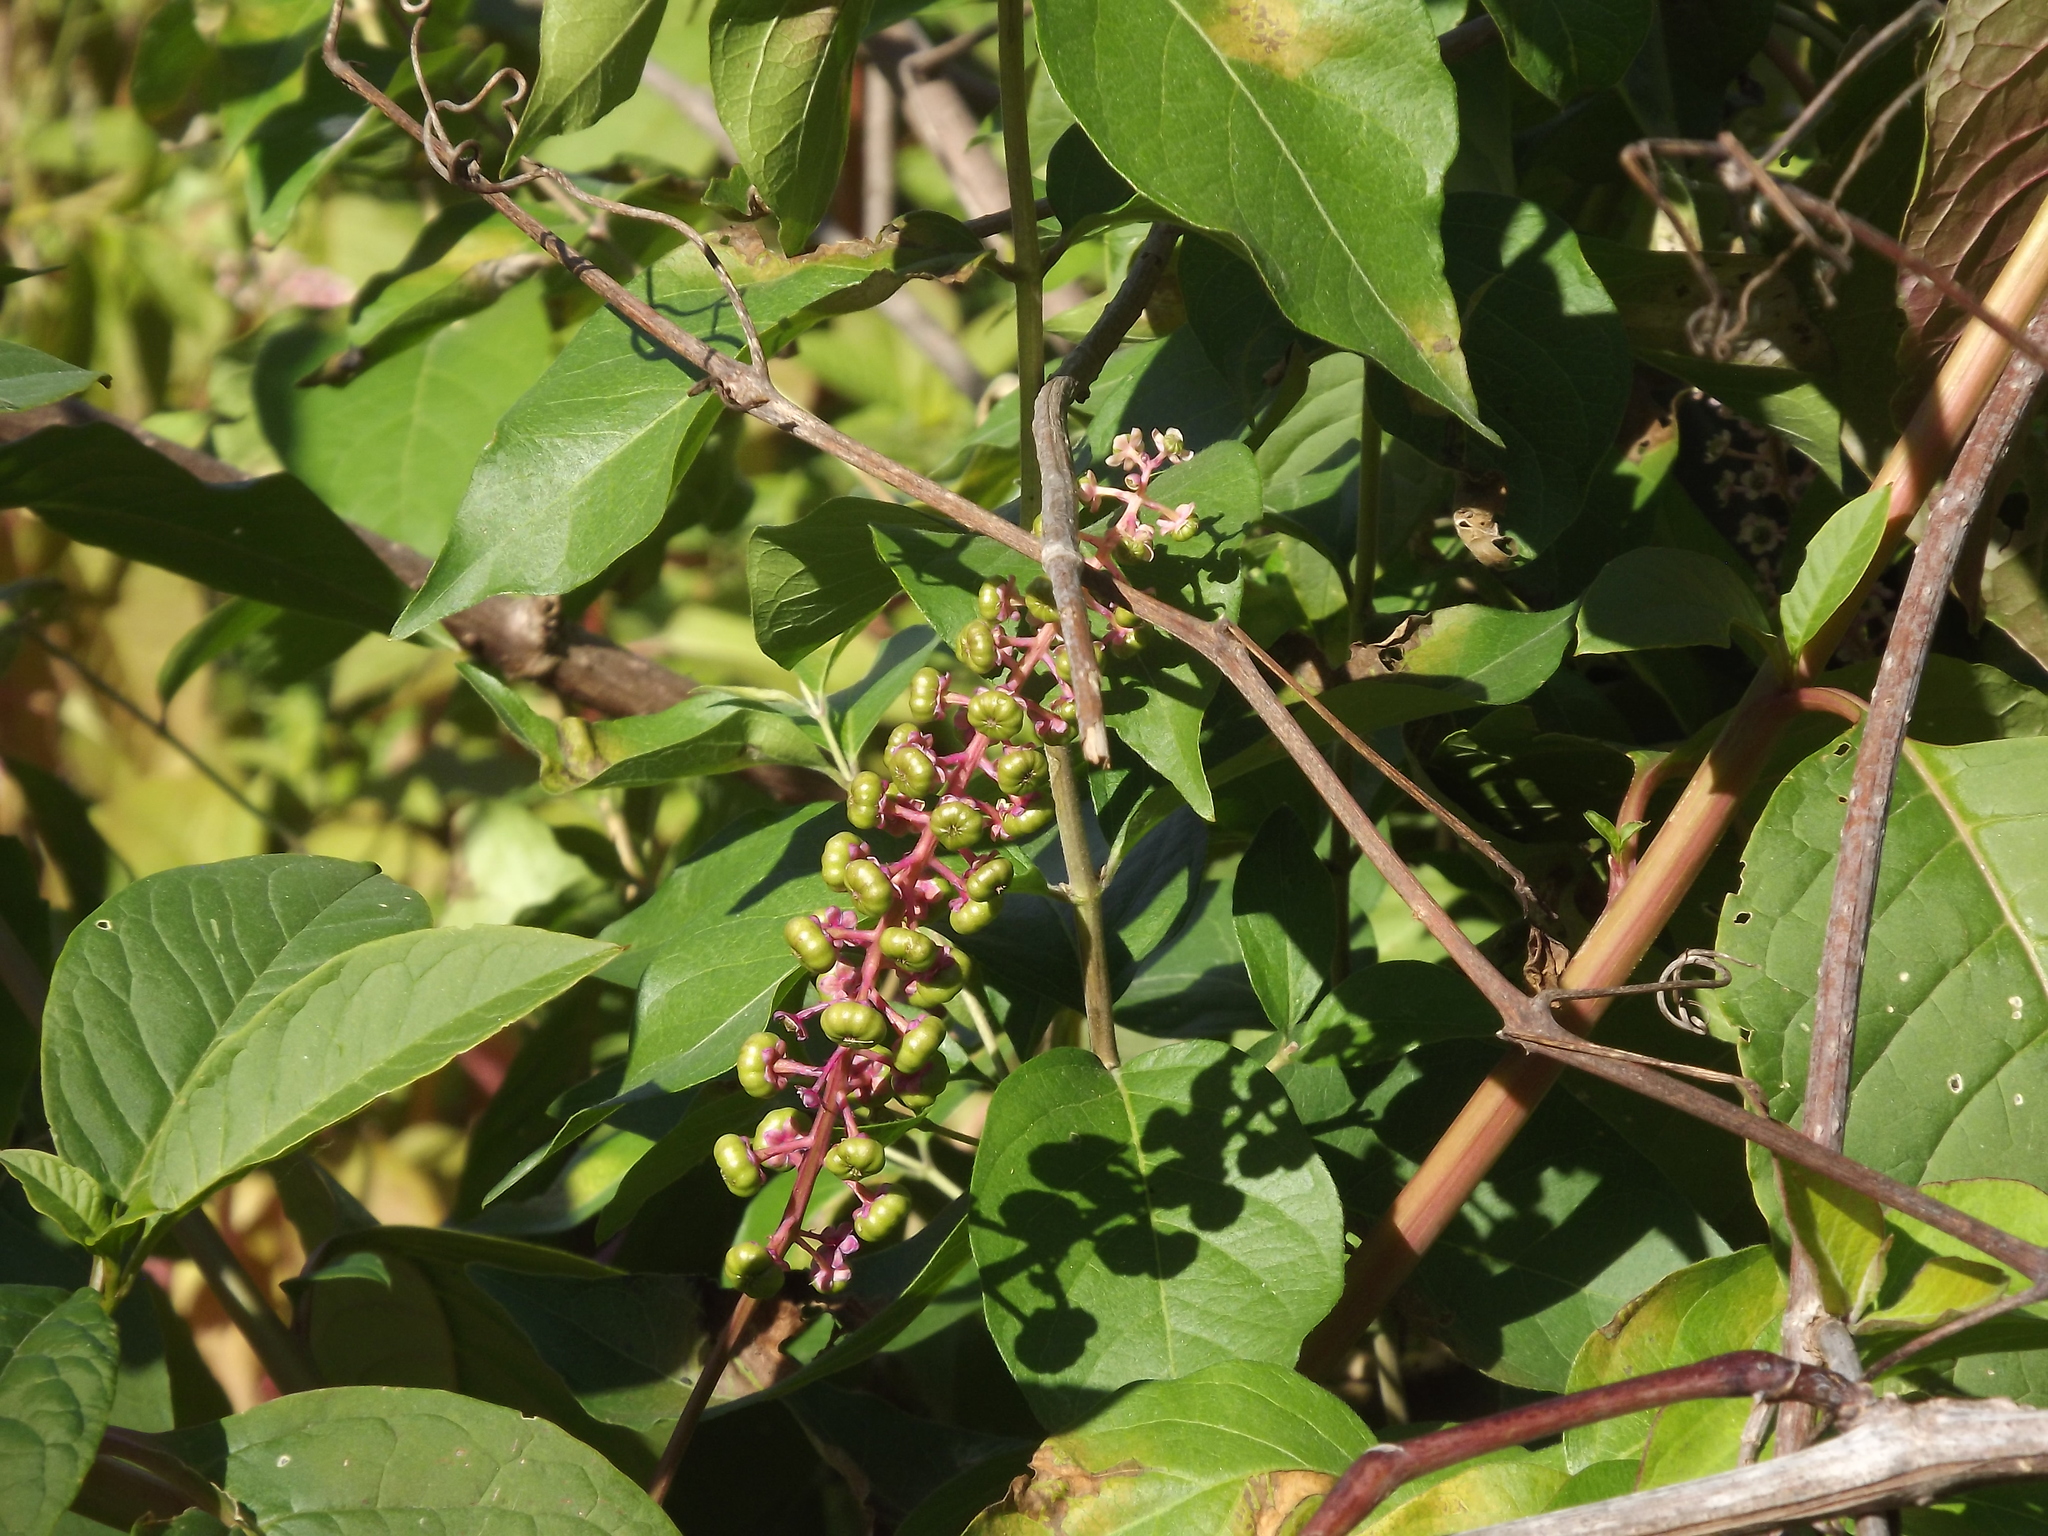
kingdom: Plantae
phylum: Tracheophyta
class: Magnoliopsida
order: Caryophyllales
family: Phytolaccaceae
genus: Phytolacca
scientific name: Phytolacca americana
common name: American pokeweed
